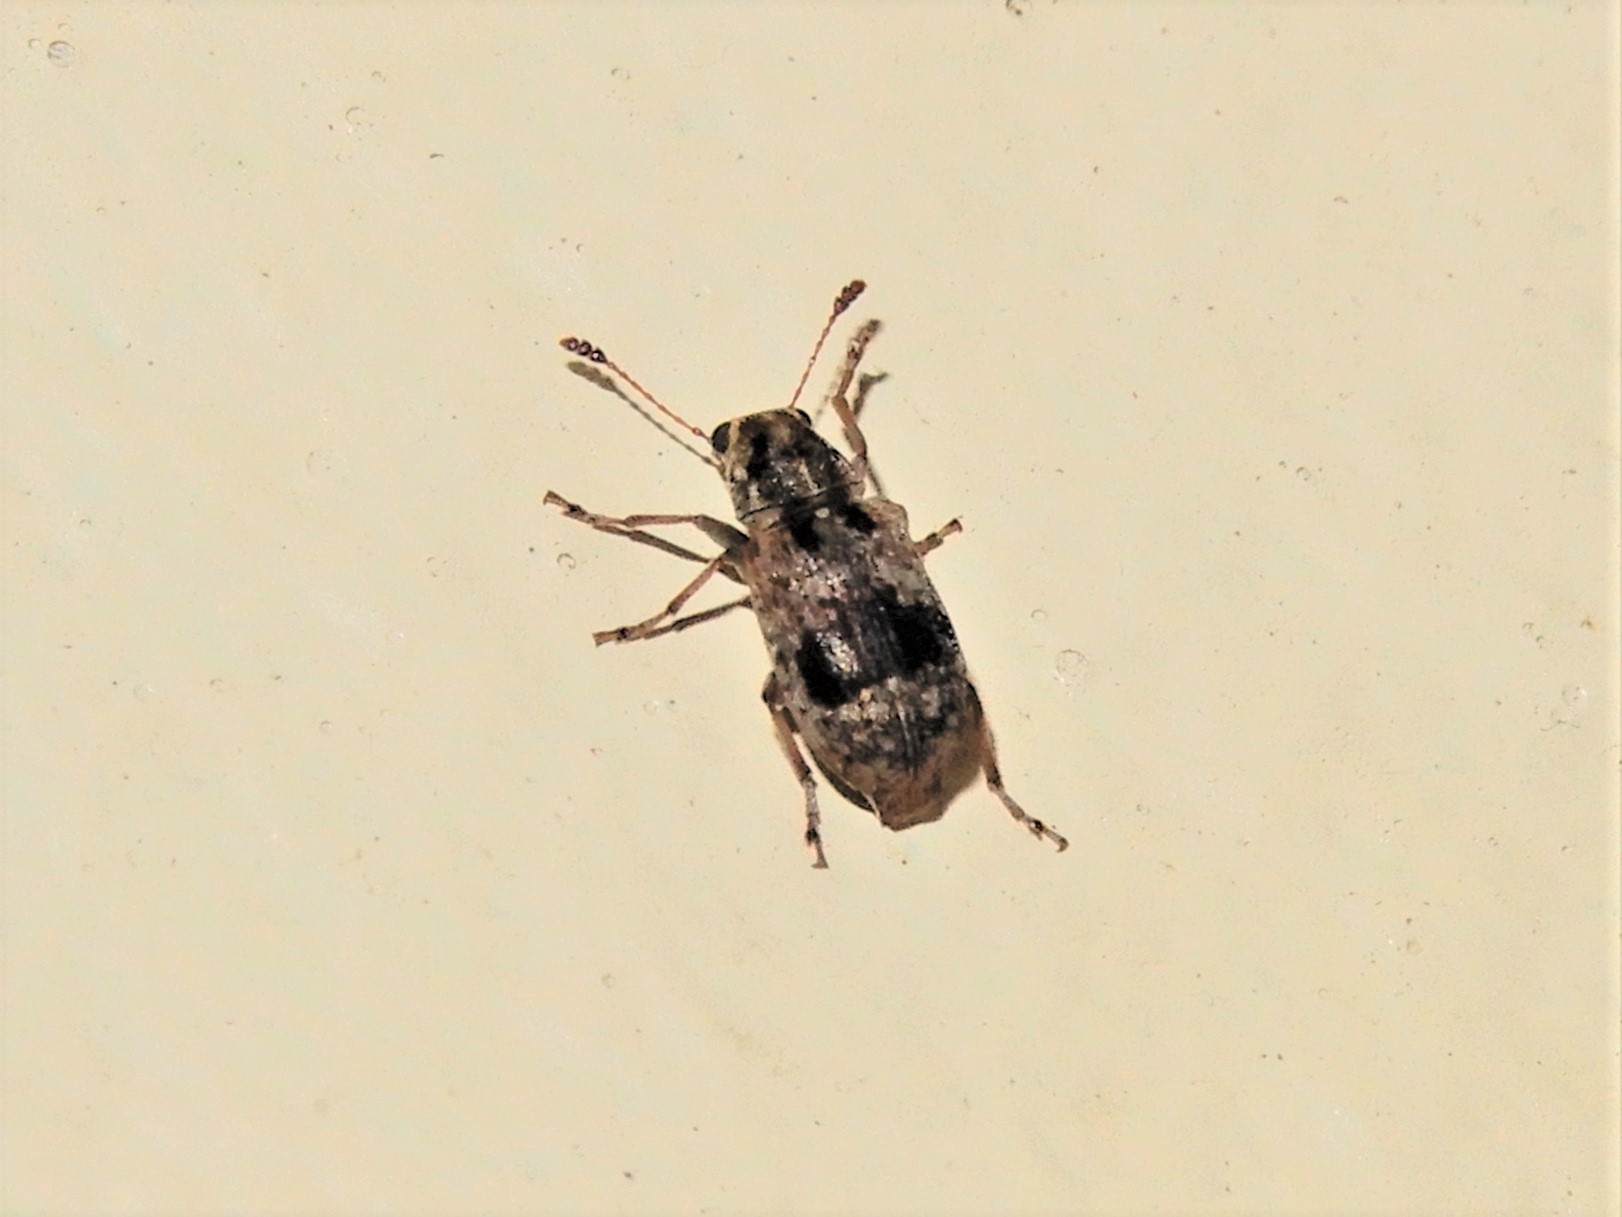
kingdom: Animalia
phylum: Arthropoda
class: Insecta
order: Coleoptera
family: Anthribidae
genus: Cacephatus
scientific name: Cacephatus huttoni
